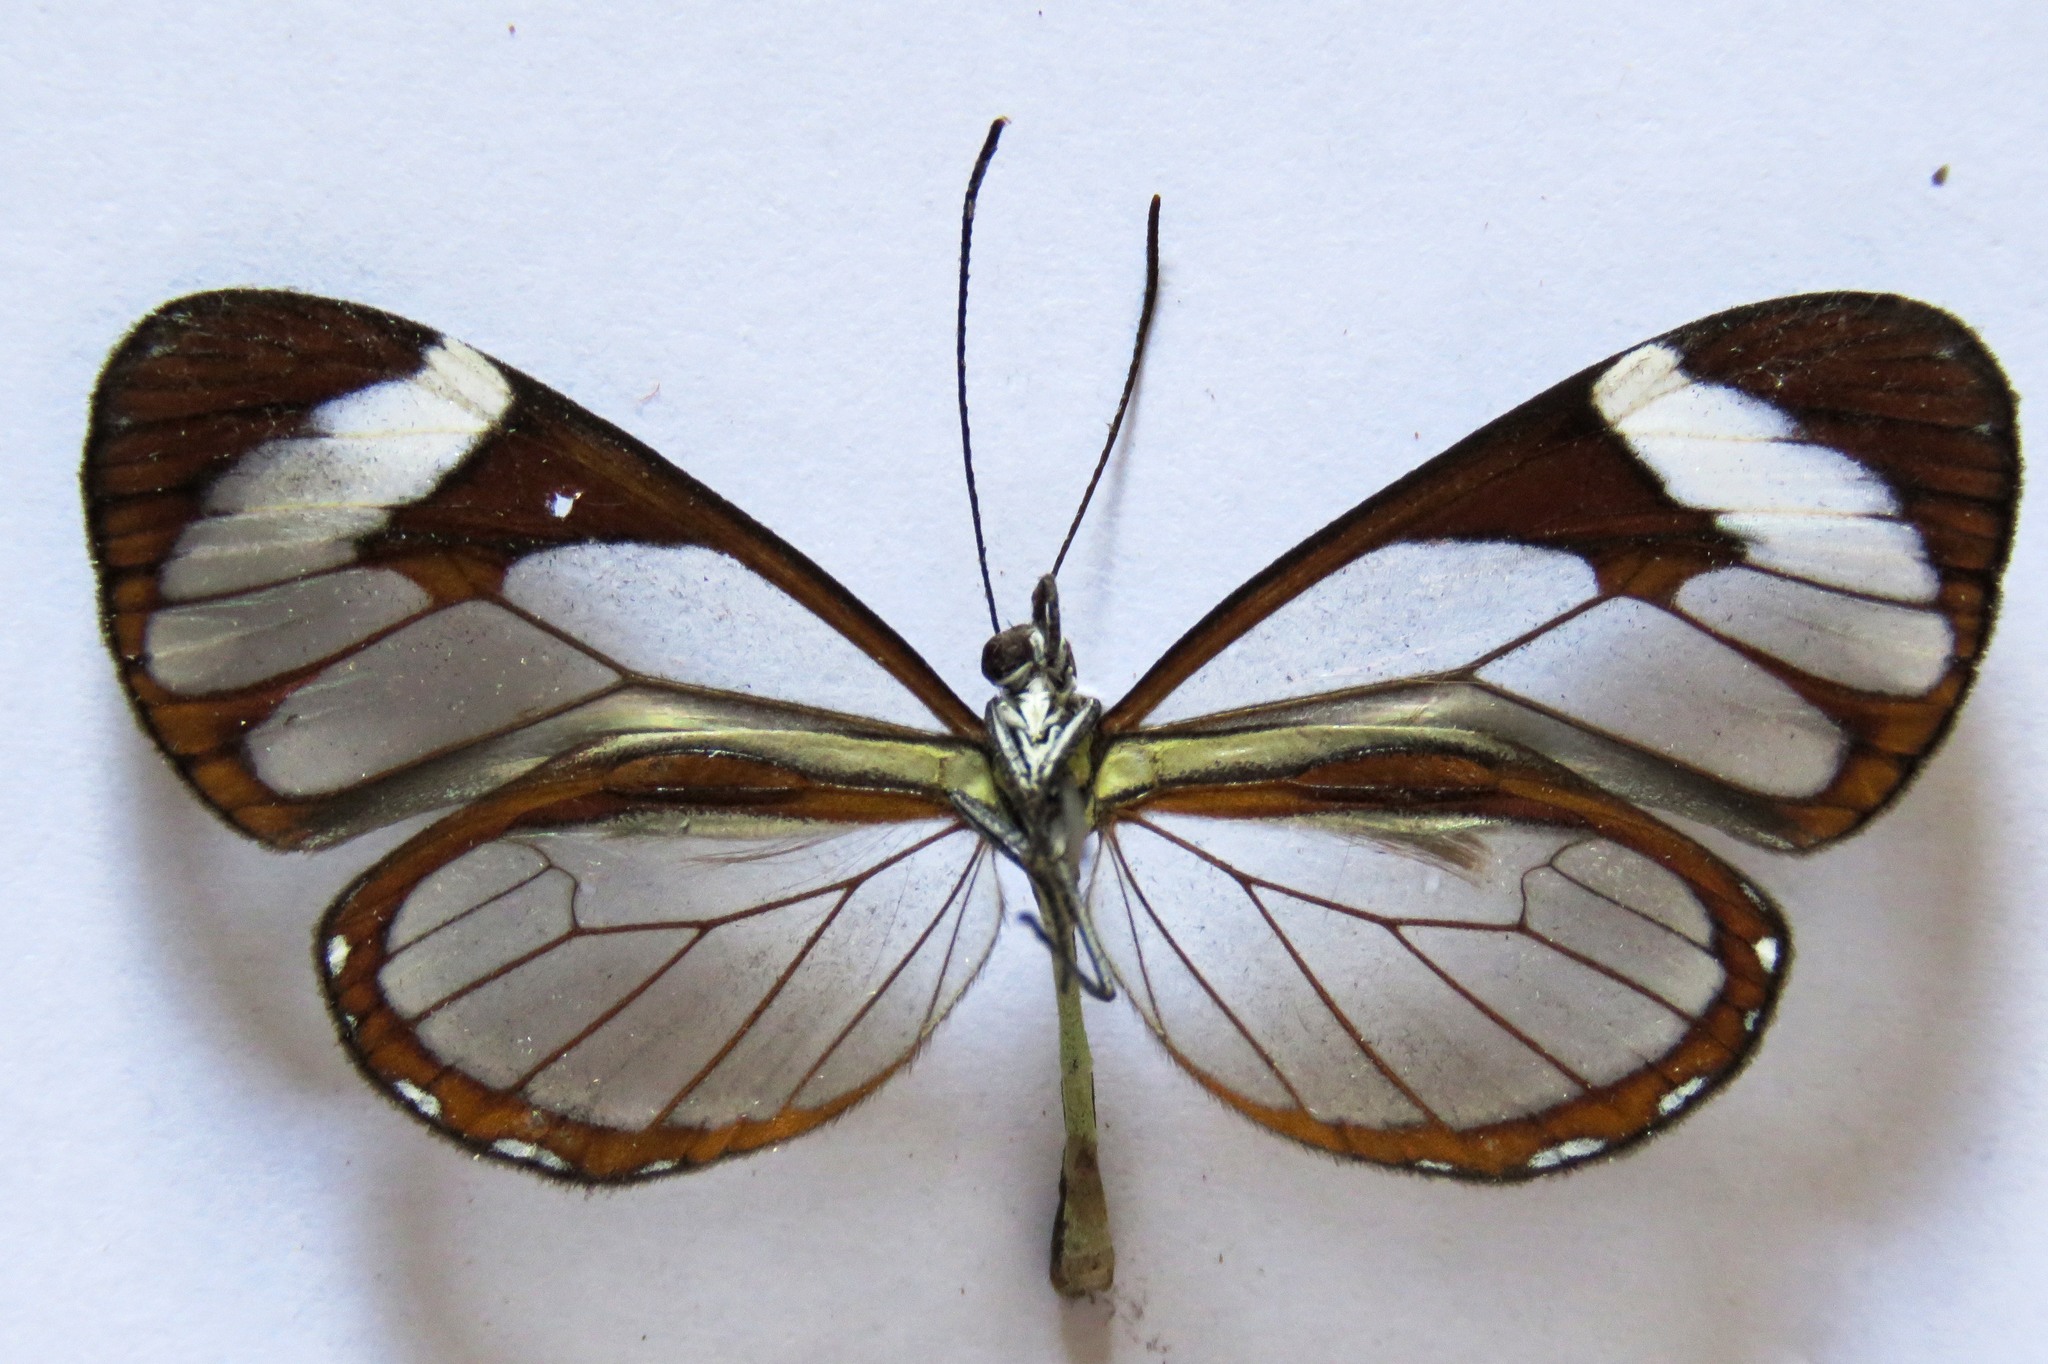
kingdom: Animalia
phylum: Arthropoda
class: Insecta
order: Lepidoptera
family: Nymphalidae
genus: Ithomia
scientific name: Ithomia patilla
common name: Patilla clearwing
